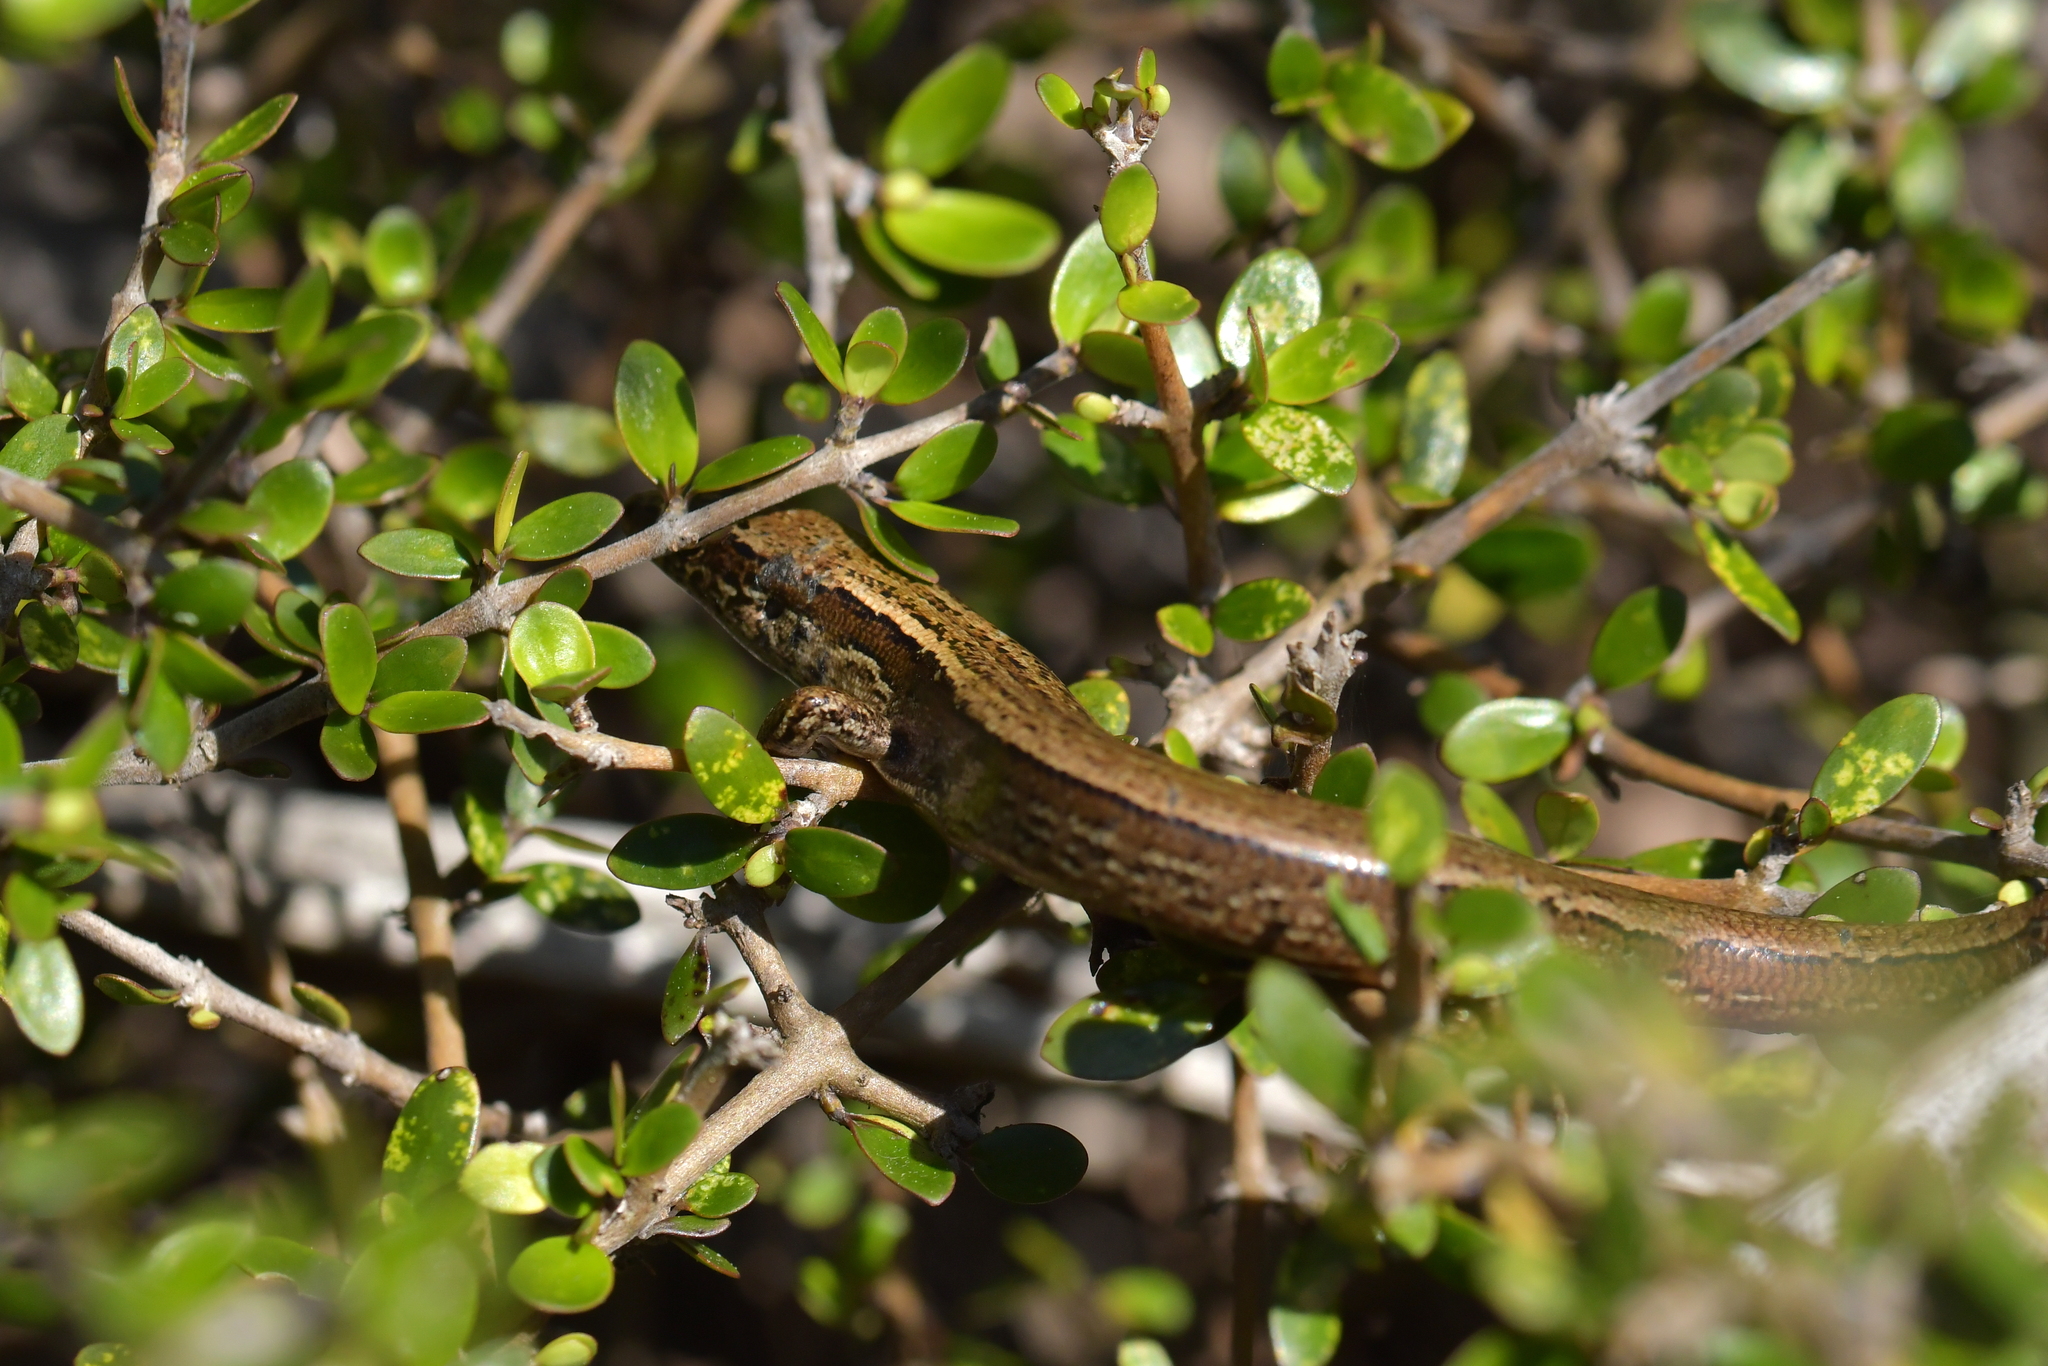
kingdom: Animalia
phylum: Chordata
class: Squamata
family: Scincidae
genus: Oligosoma
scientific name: Oligosoma zelandicum
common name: Brown skink
